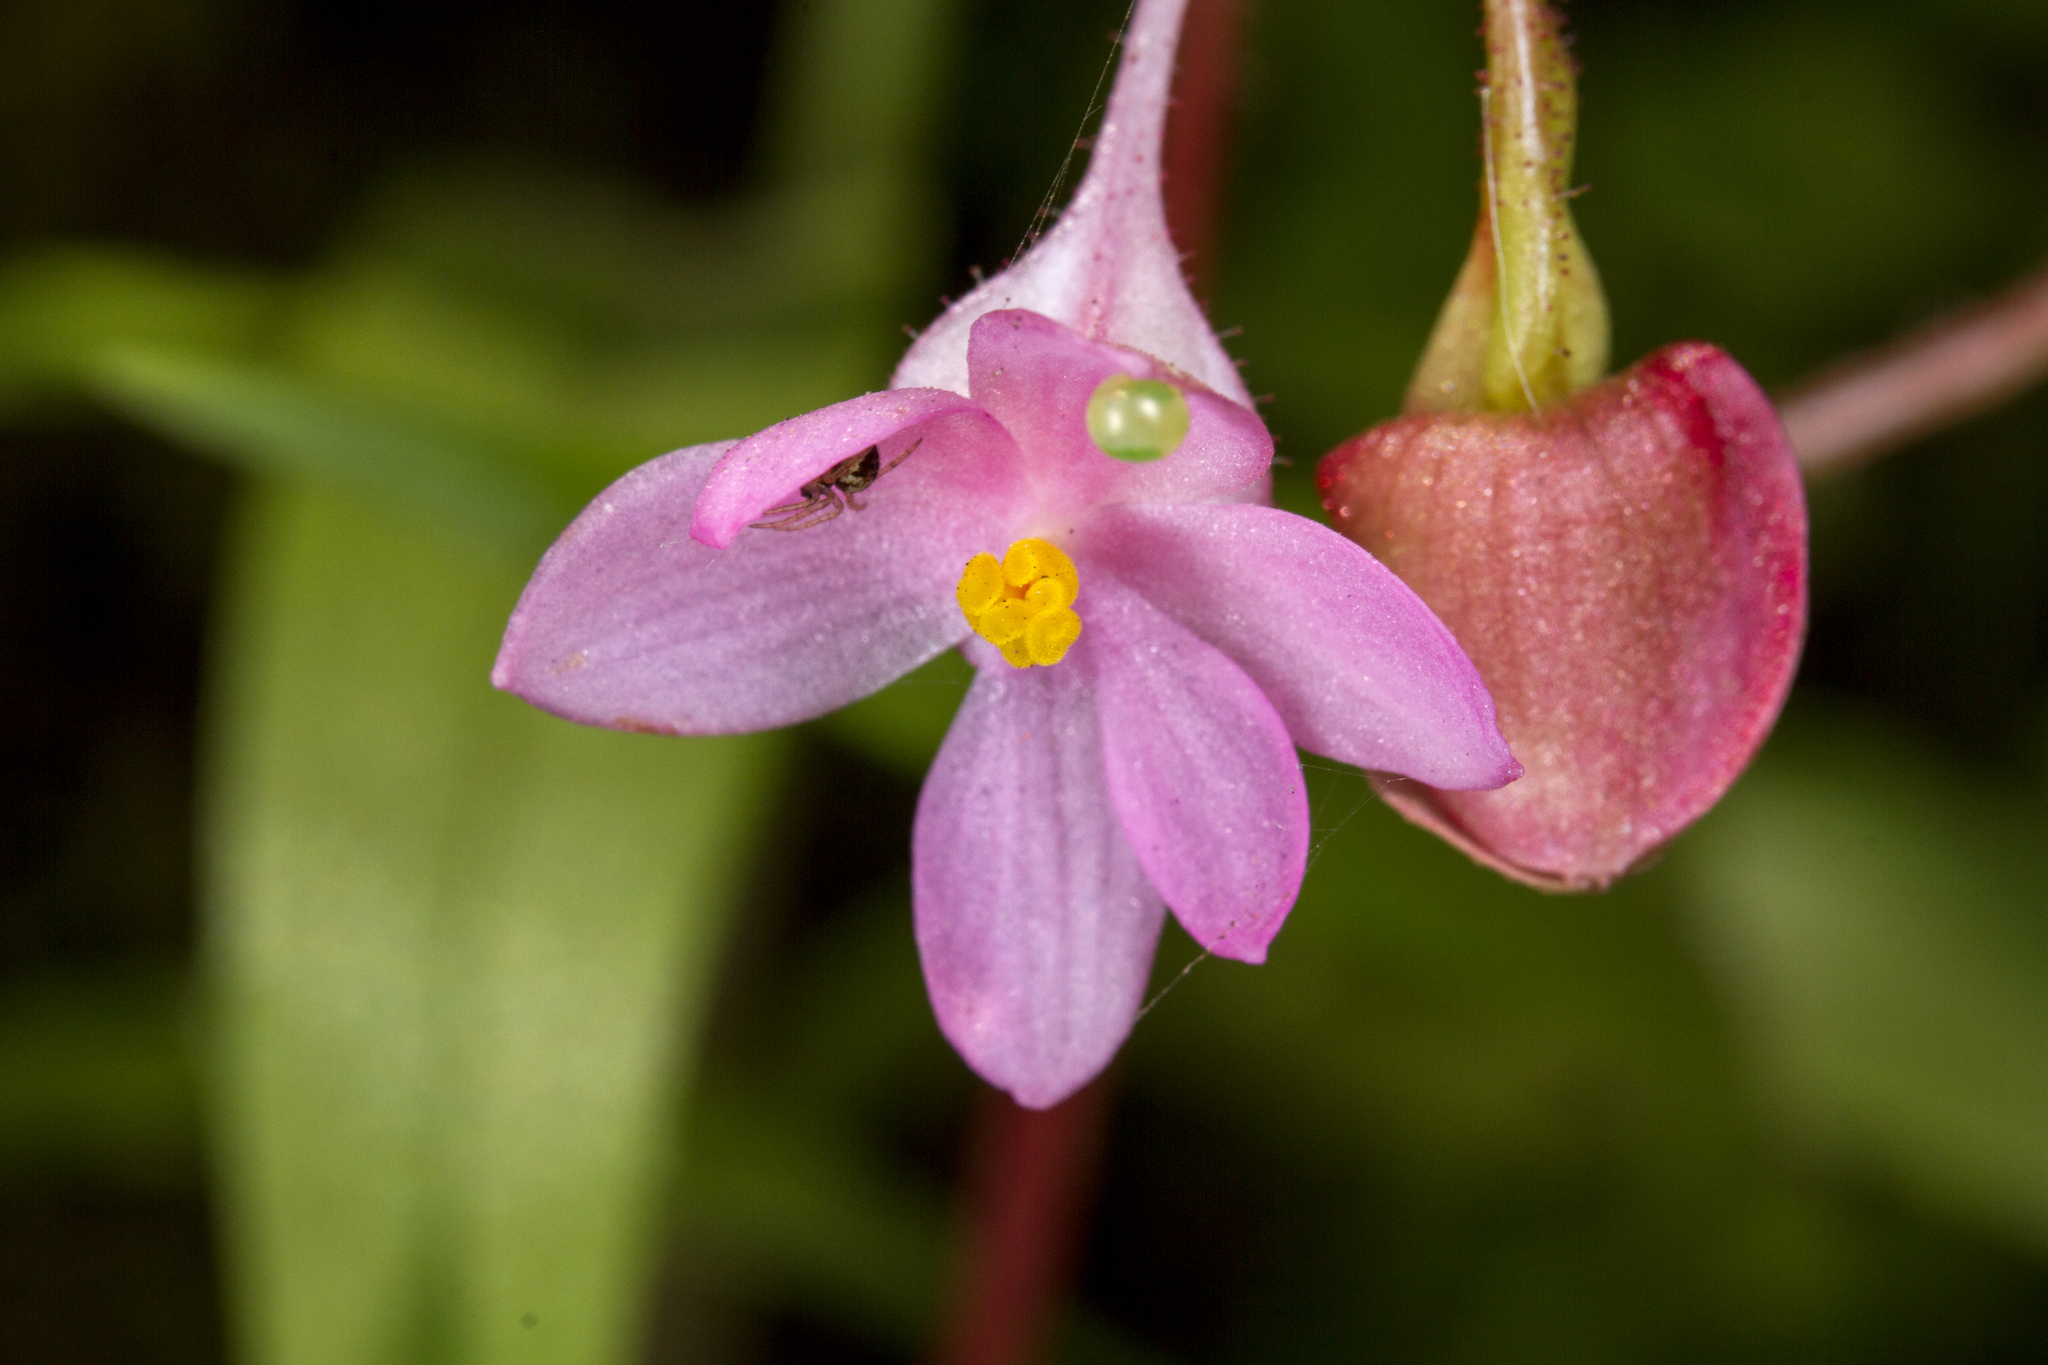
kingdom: Plantae
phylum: Tracheophyta
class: Magnoliopsida
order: Cucurbitales
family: Begoniaceae
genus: Begonia
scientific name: Begonia crenata
